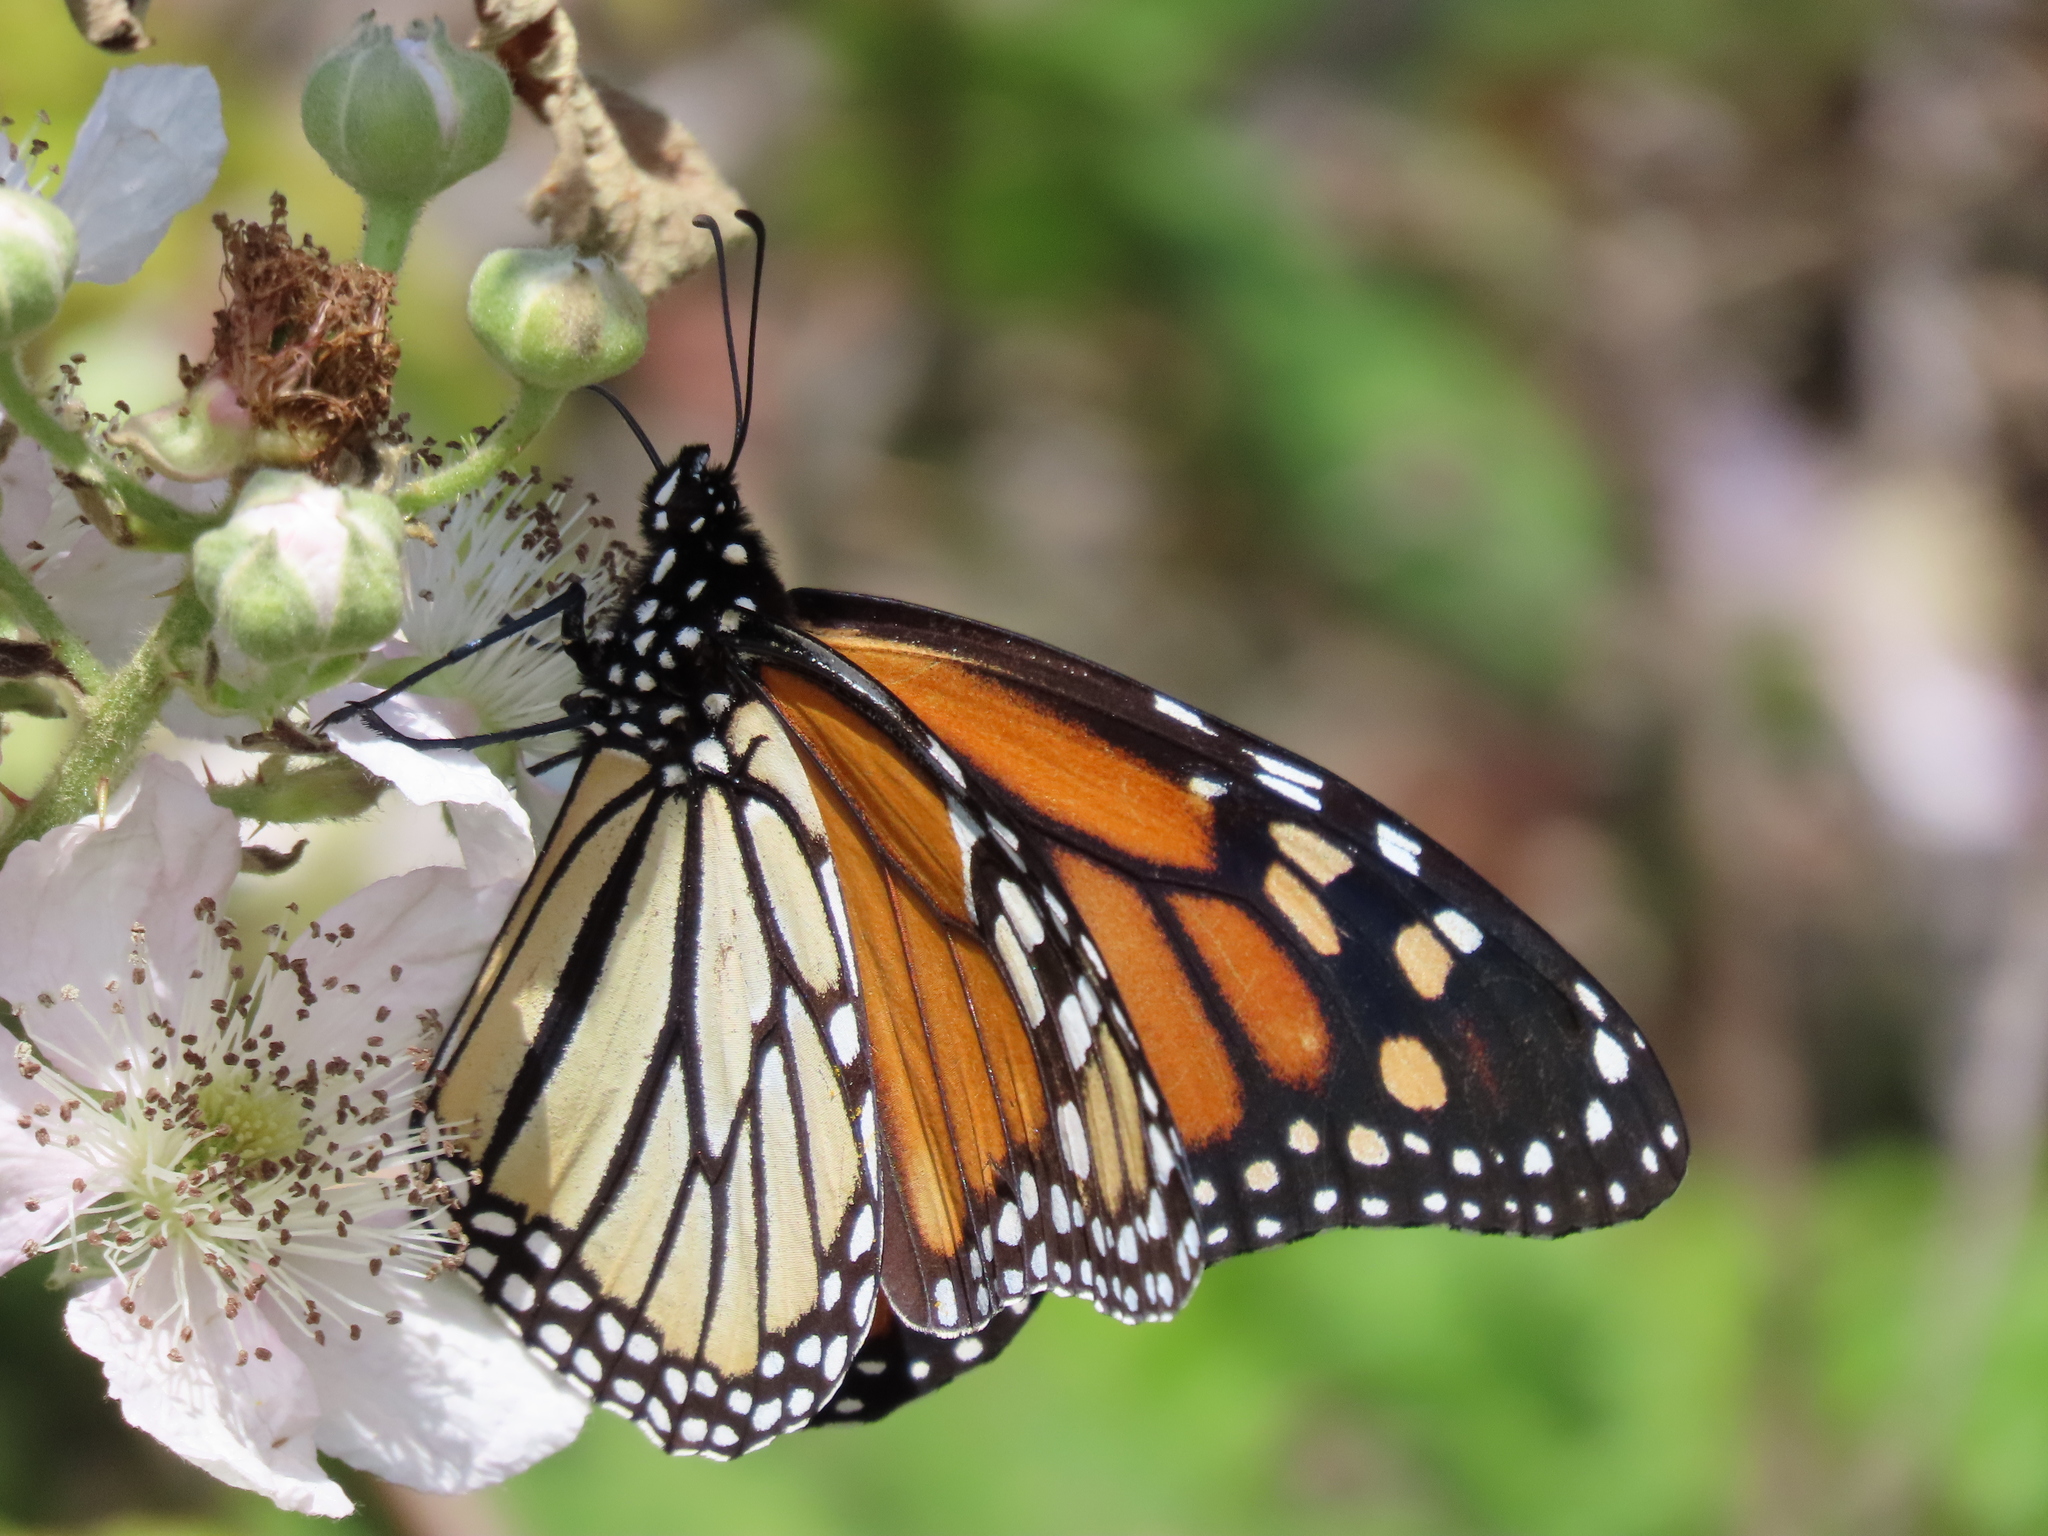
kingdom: Animalia
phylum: Arthropoda
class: Insecta
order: Lepidoptera
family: Nymphalidae
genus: Danaus
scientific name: Danaus plexippus
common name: Monarch
